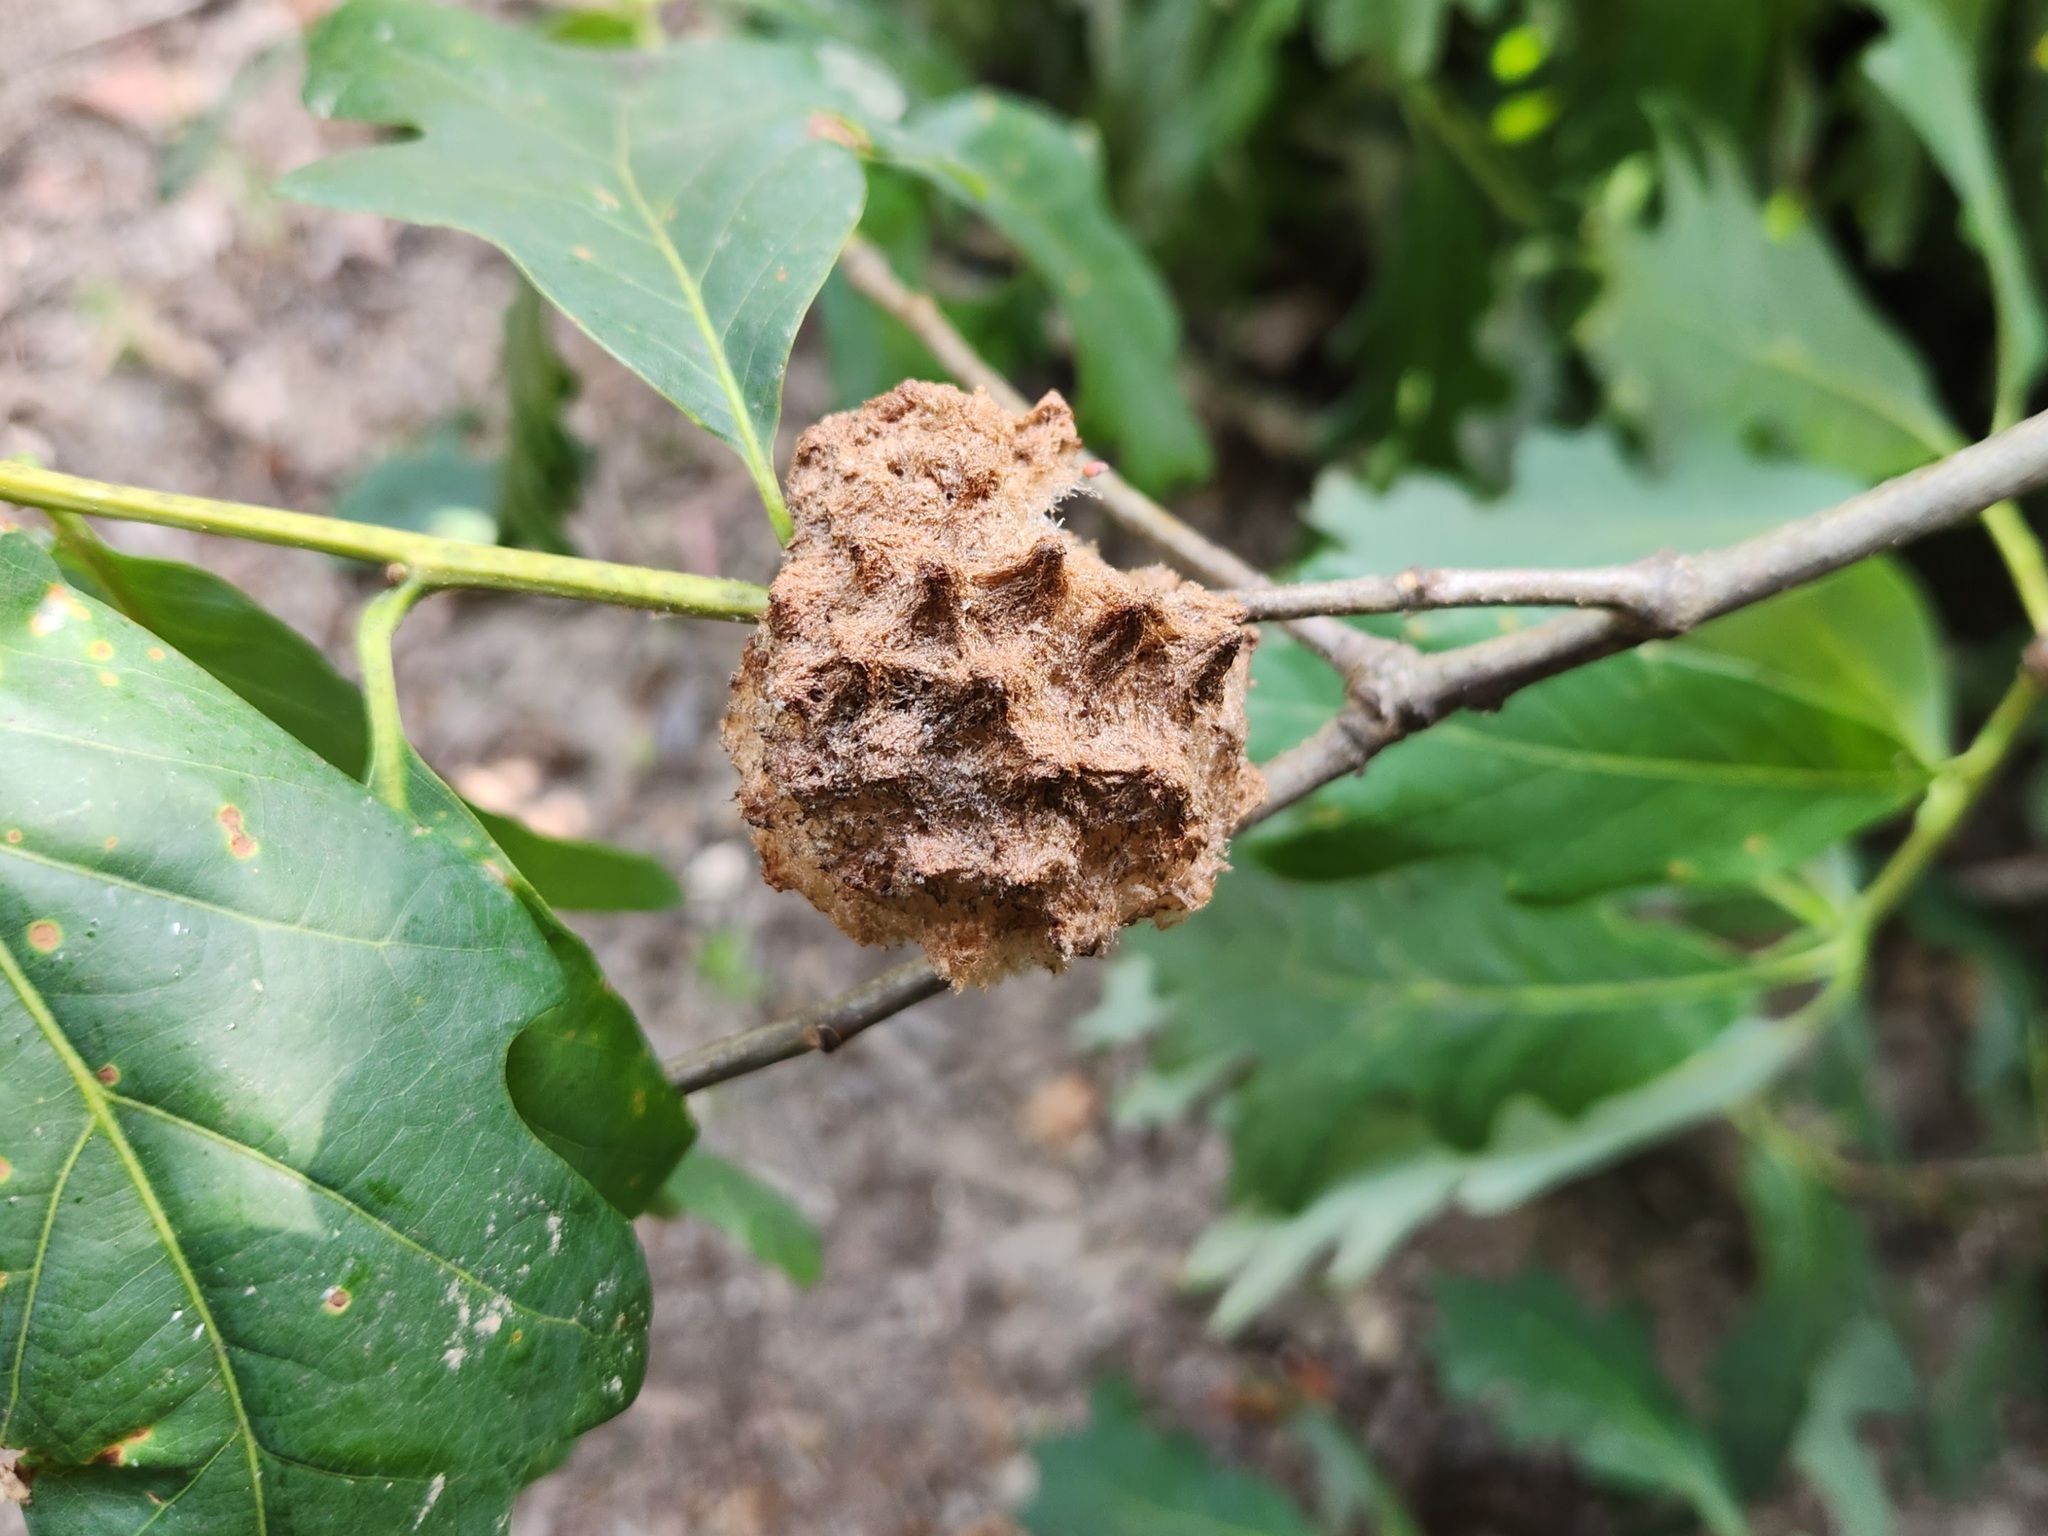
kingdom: Animalia
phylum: Arthropoda
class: Insecta
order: Hymenoptera
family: Cynipidae
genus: Callirhytis
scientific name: Callirhytis
